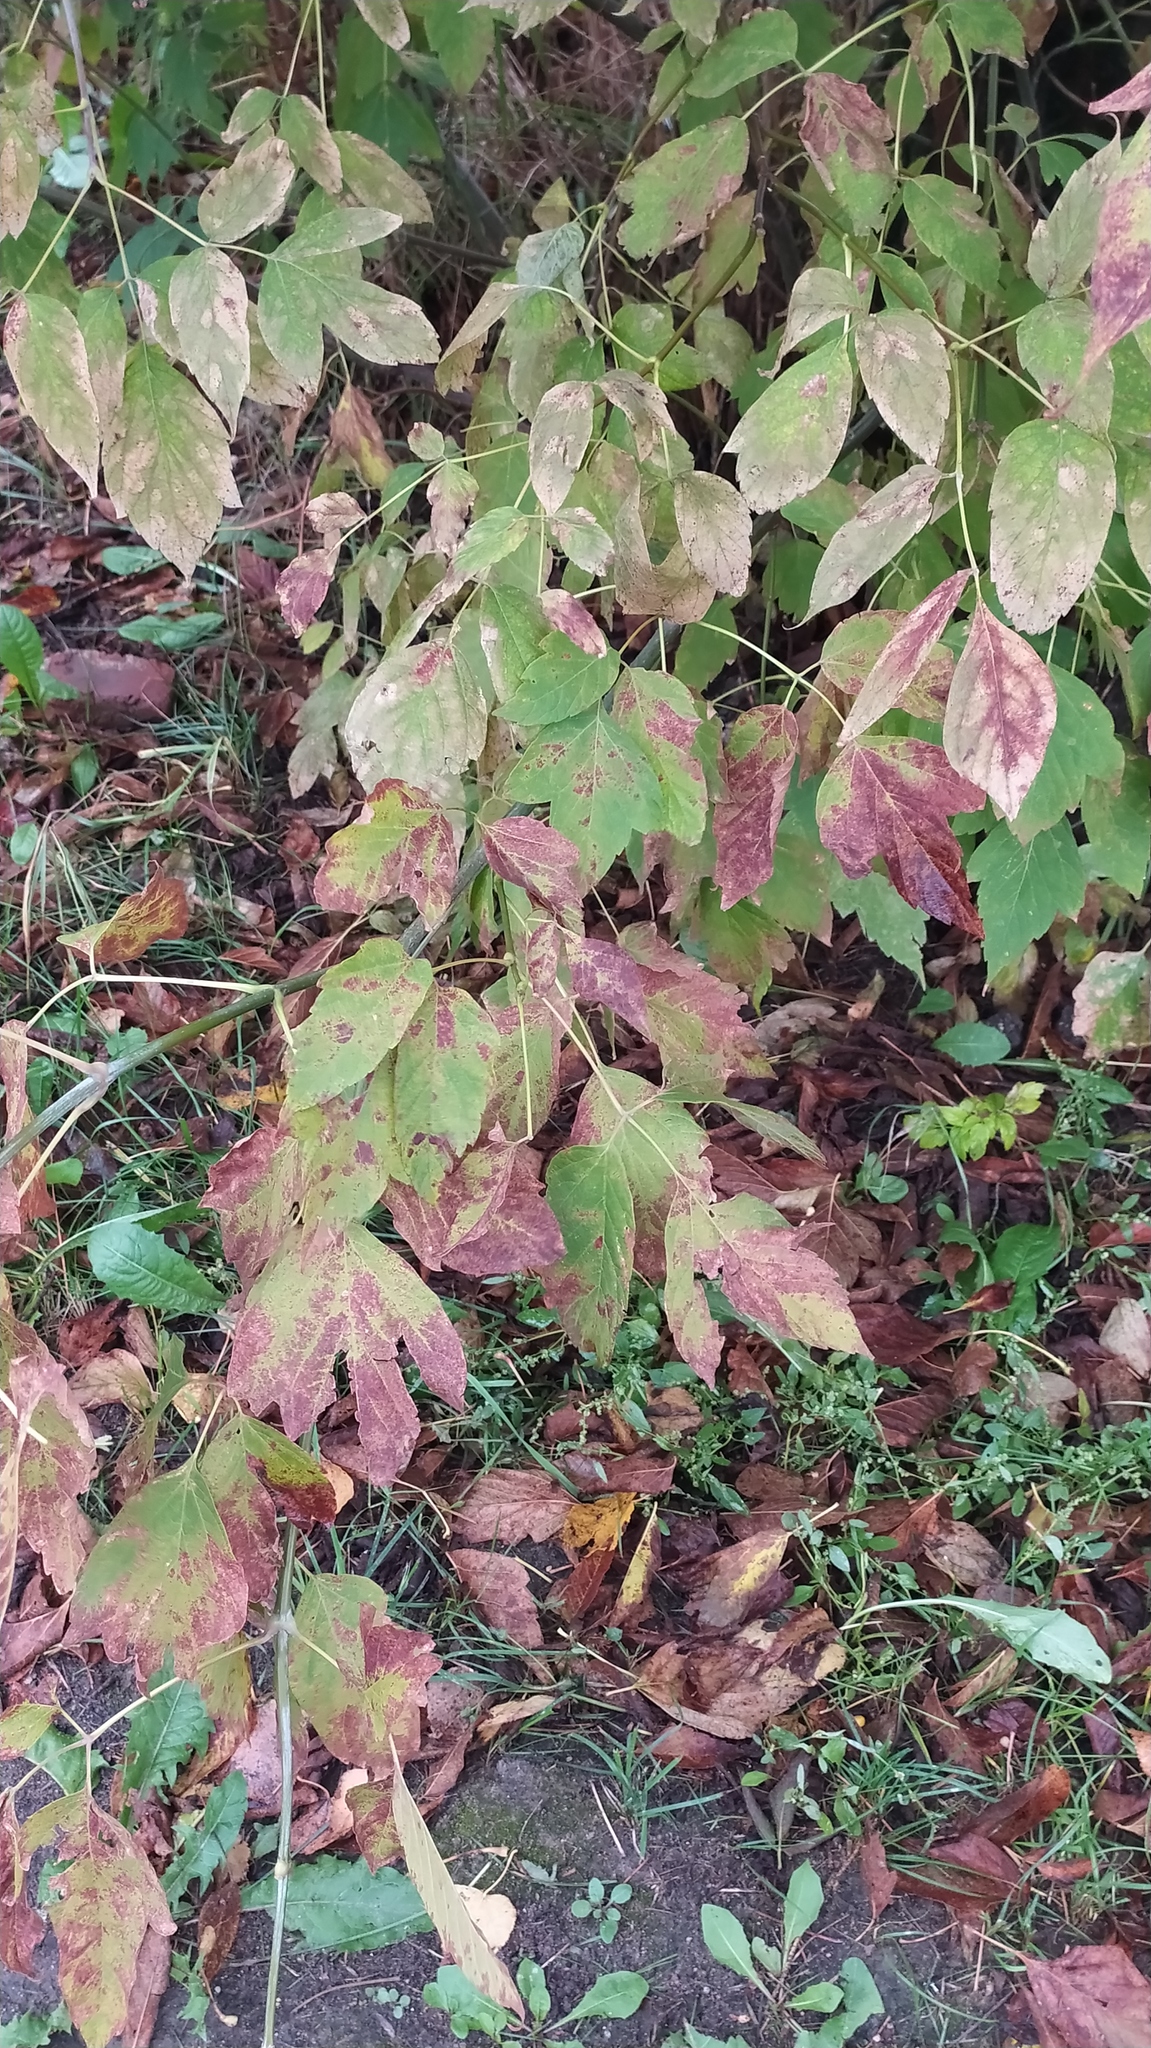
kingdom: Plantae
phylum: Tracheophyta
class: Magnoliopsida
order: Sapindales
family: Sapindaceae
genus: Acer
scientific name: Acer negundo
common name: Ashleaf maple
